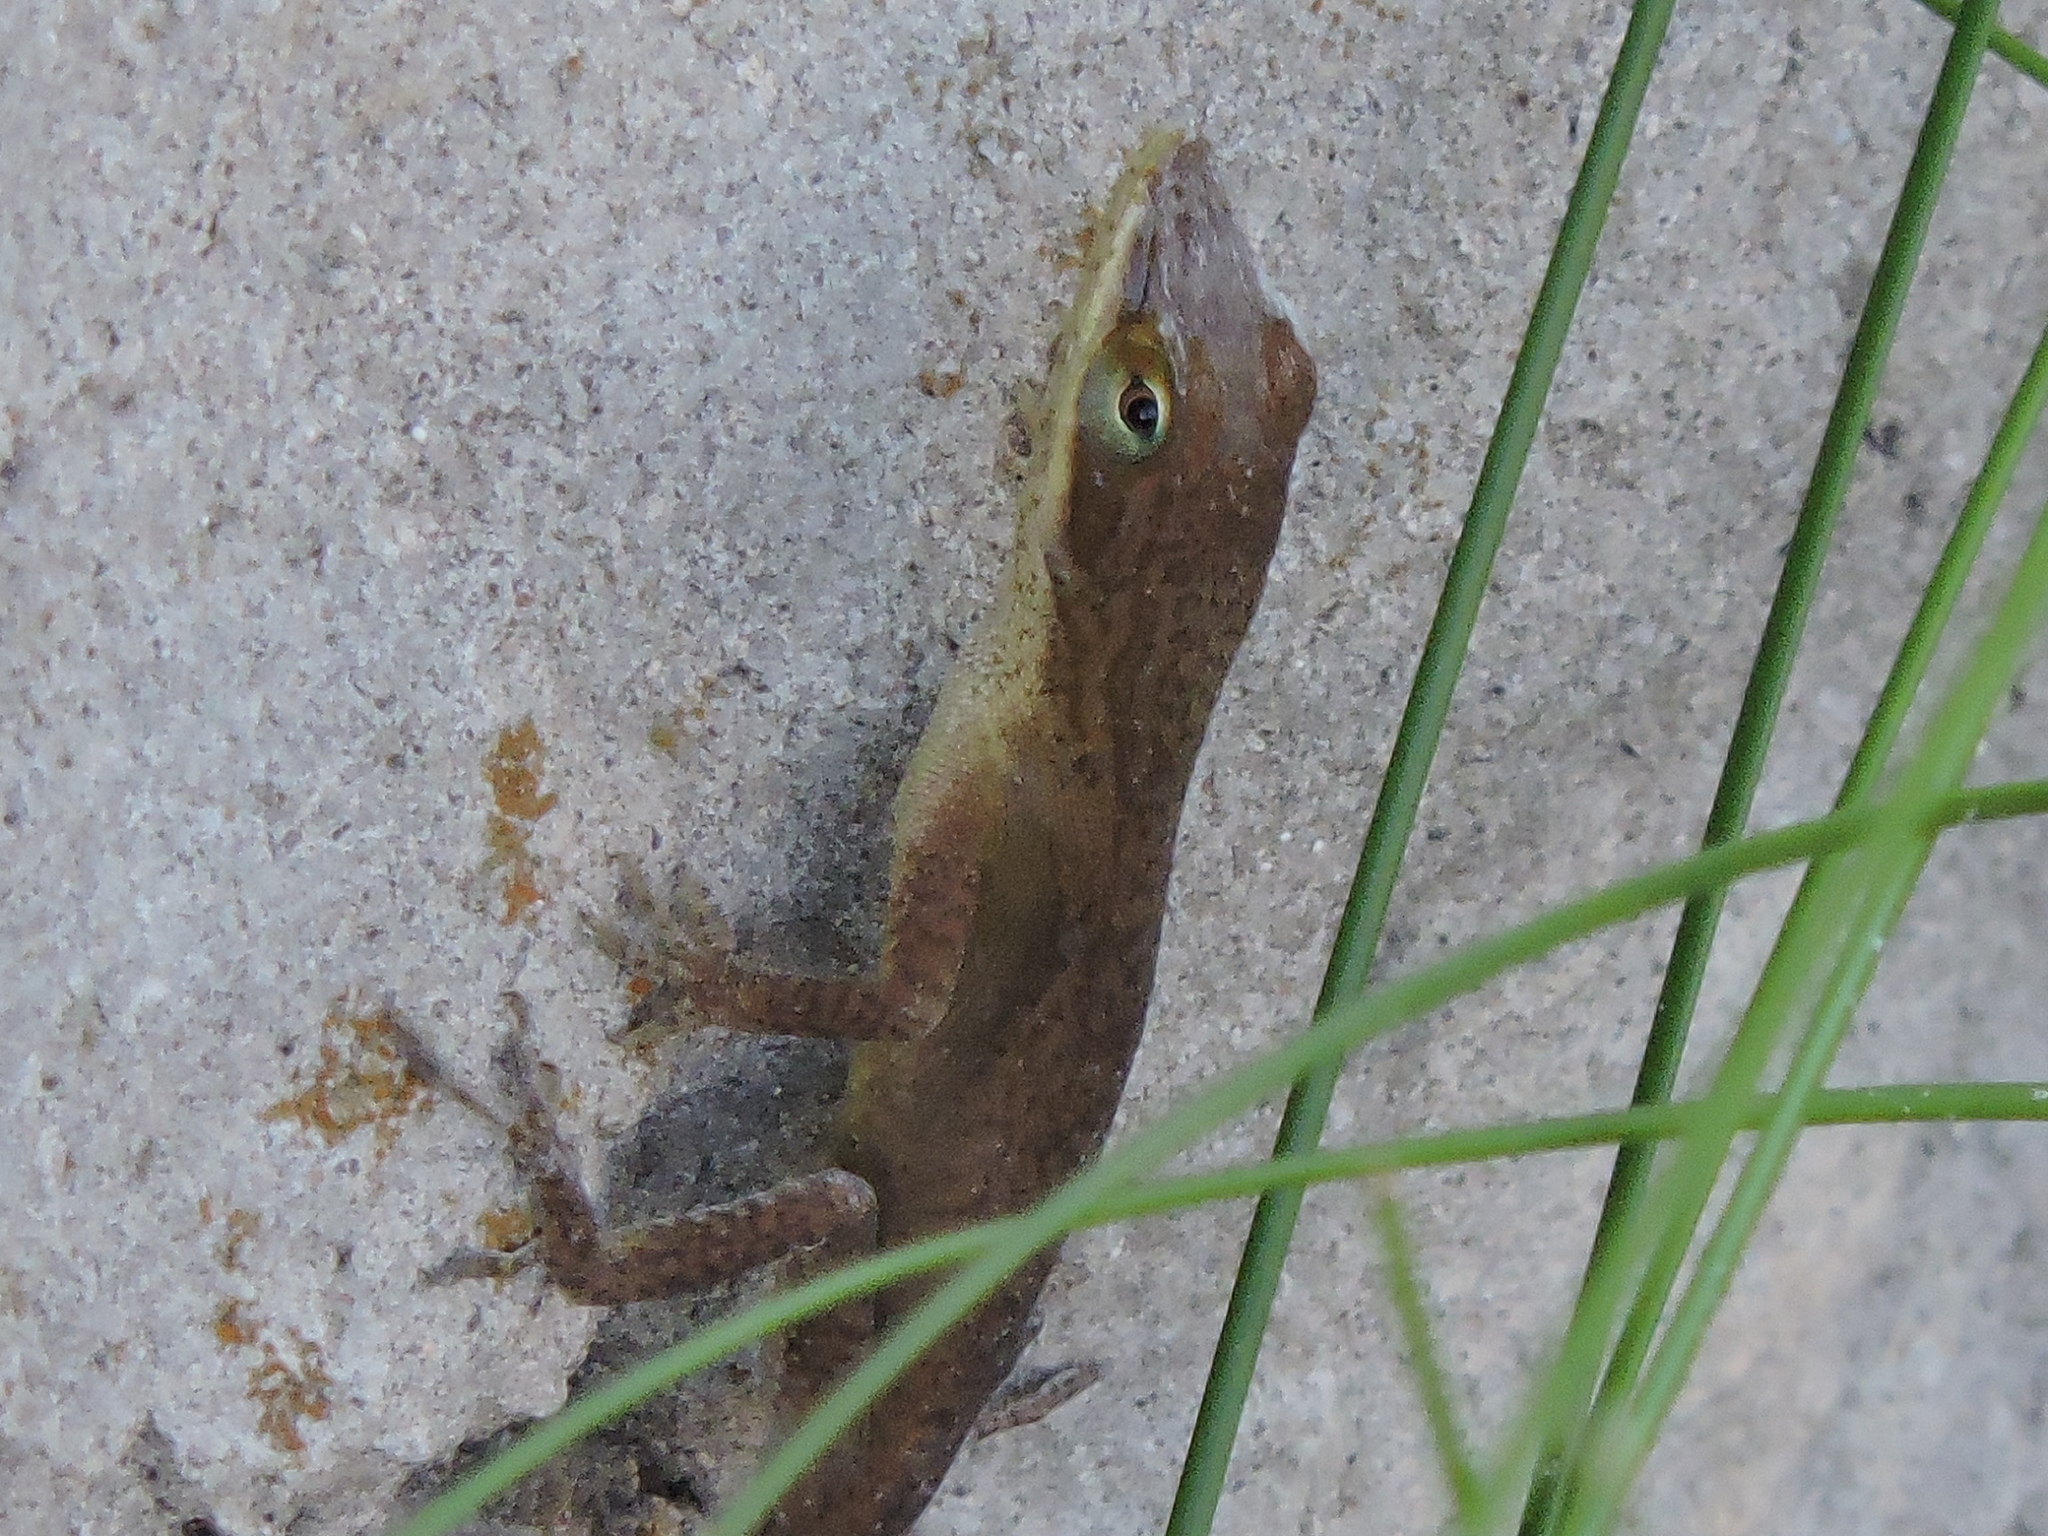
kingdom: Animalia
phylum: Chordata
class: Squamata
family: Dactyloidae
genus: Anolis
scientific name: Anolis carolinensis
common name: Green anole
